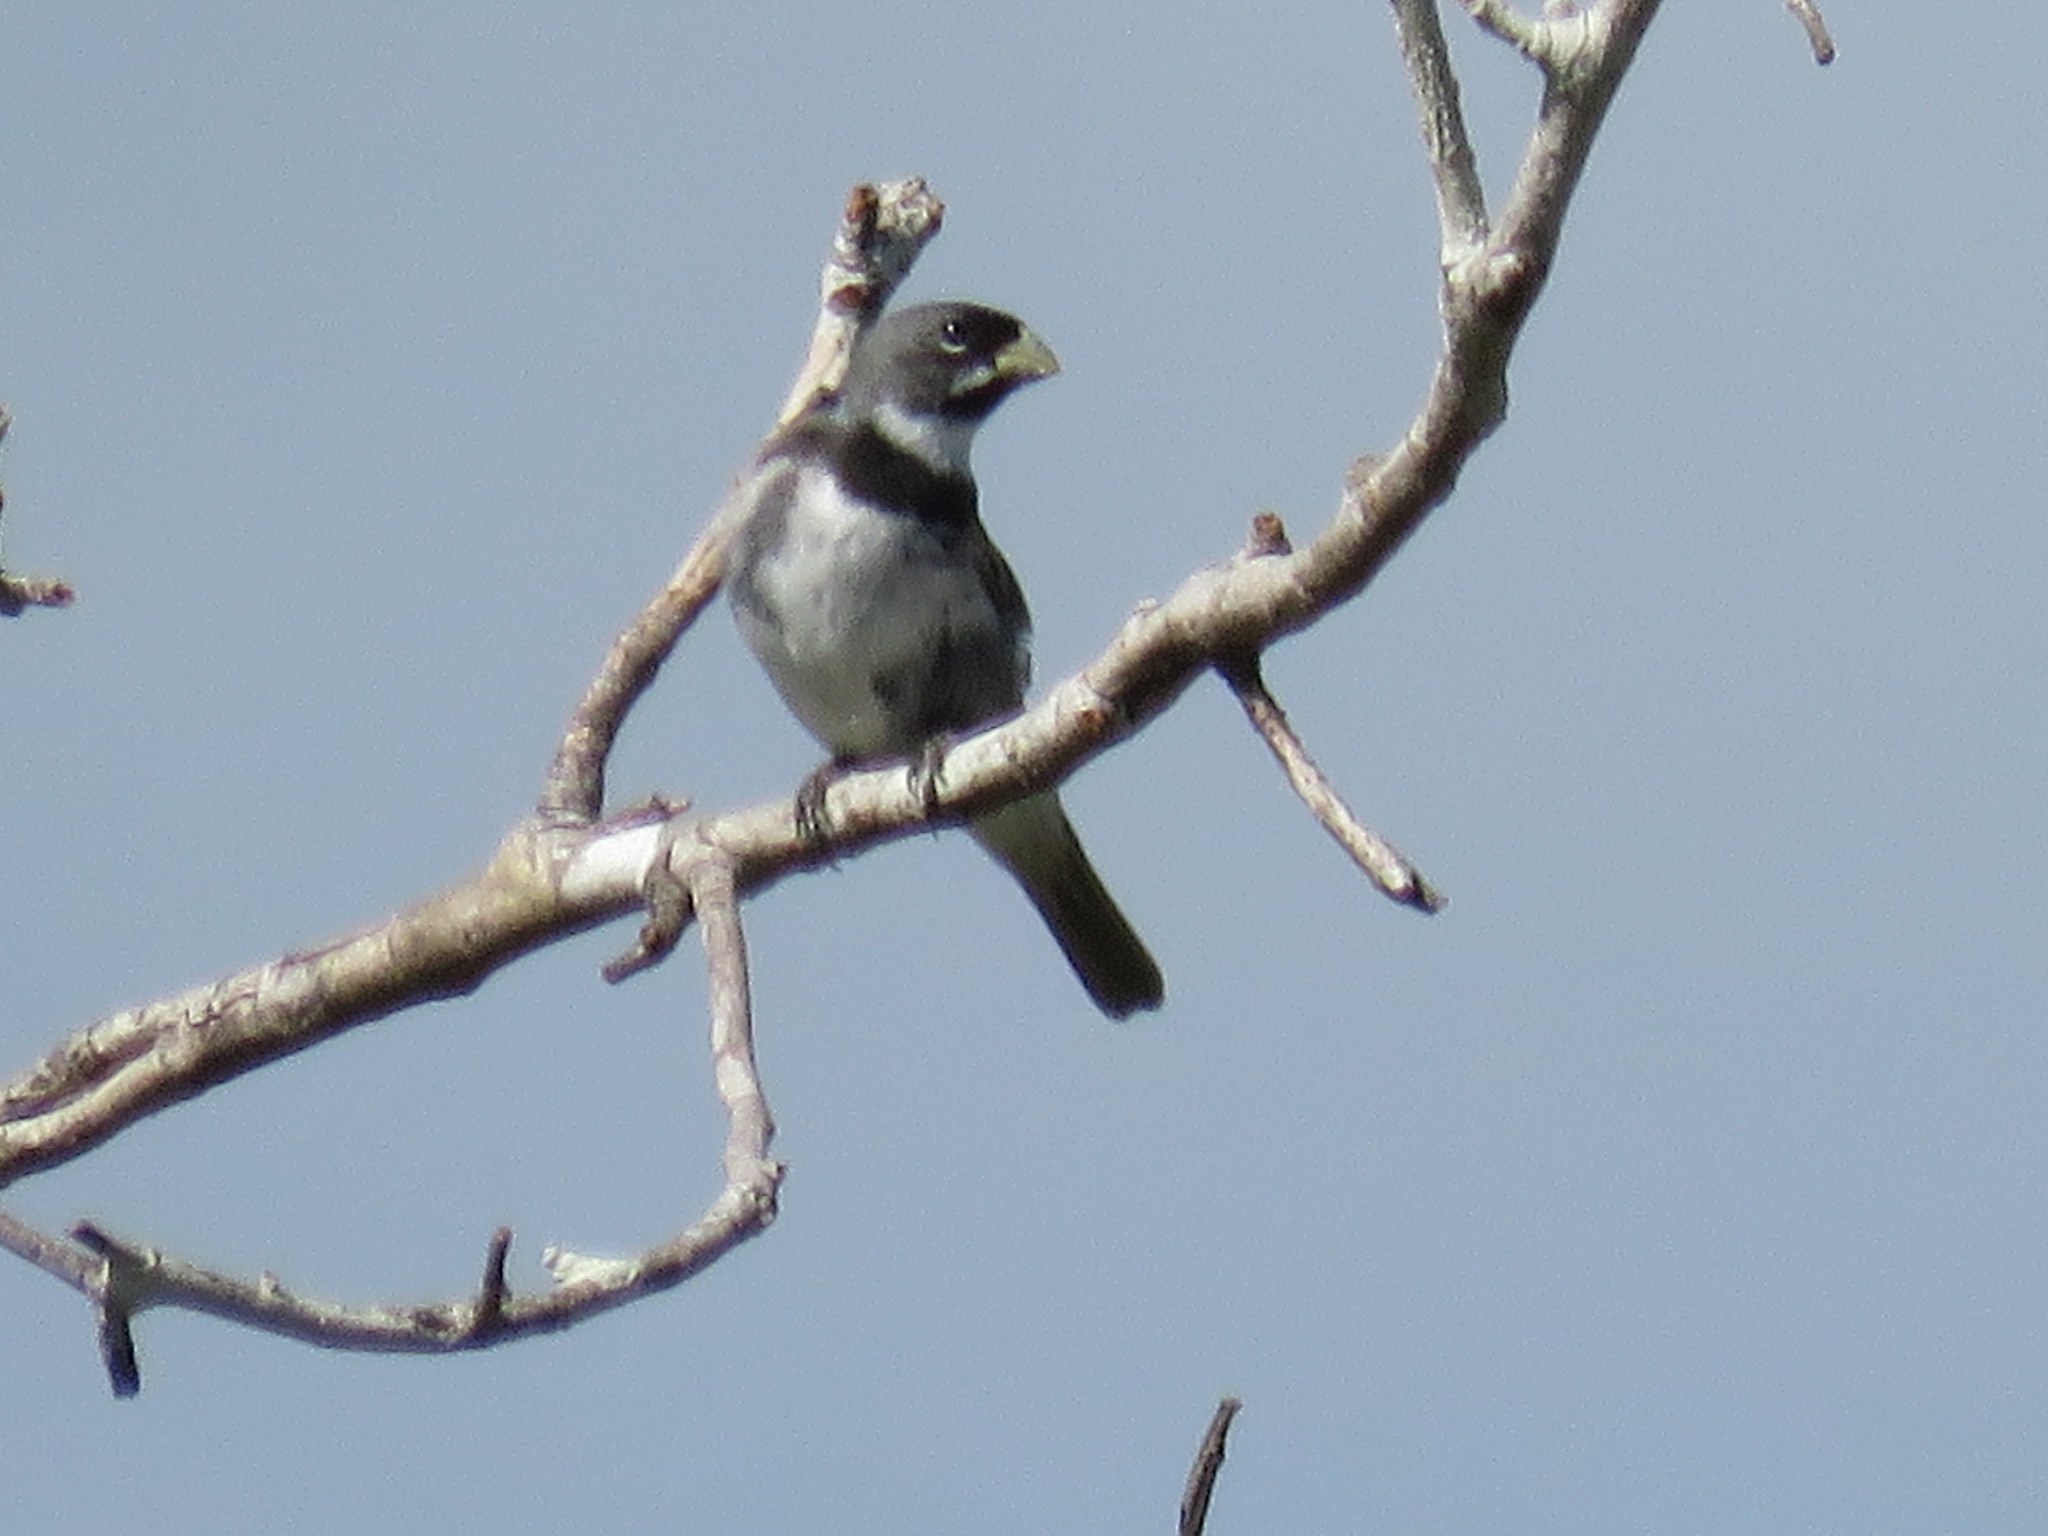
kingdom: Animalia
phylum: Chordata
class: Aves
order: Passeriformes
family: Thraupidae
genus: Sporophila
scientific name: Sporophila caerulescens
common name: Double-collared seedeater
